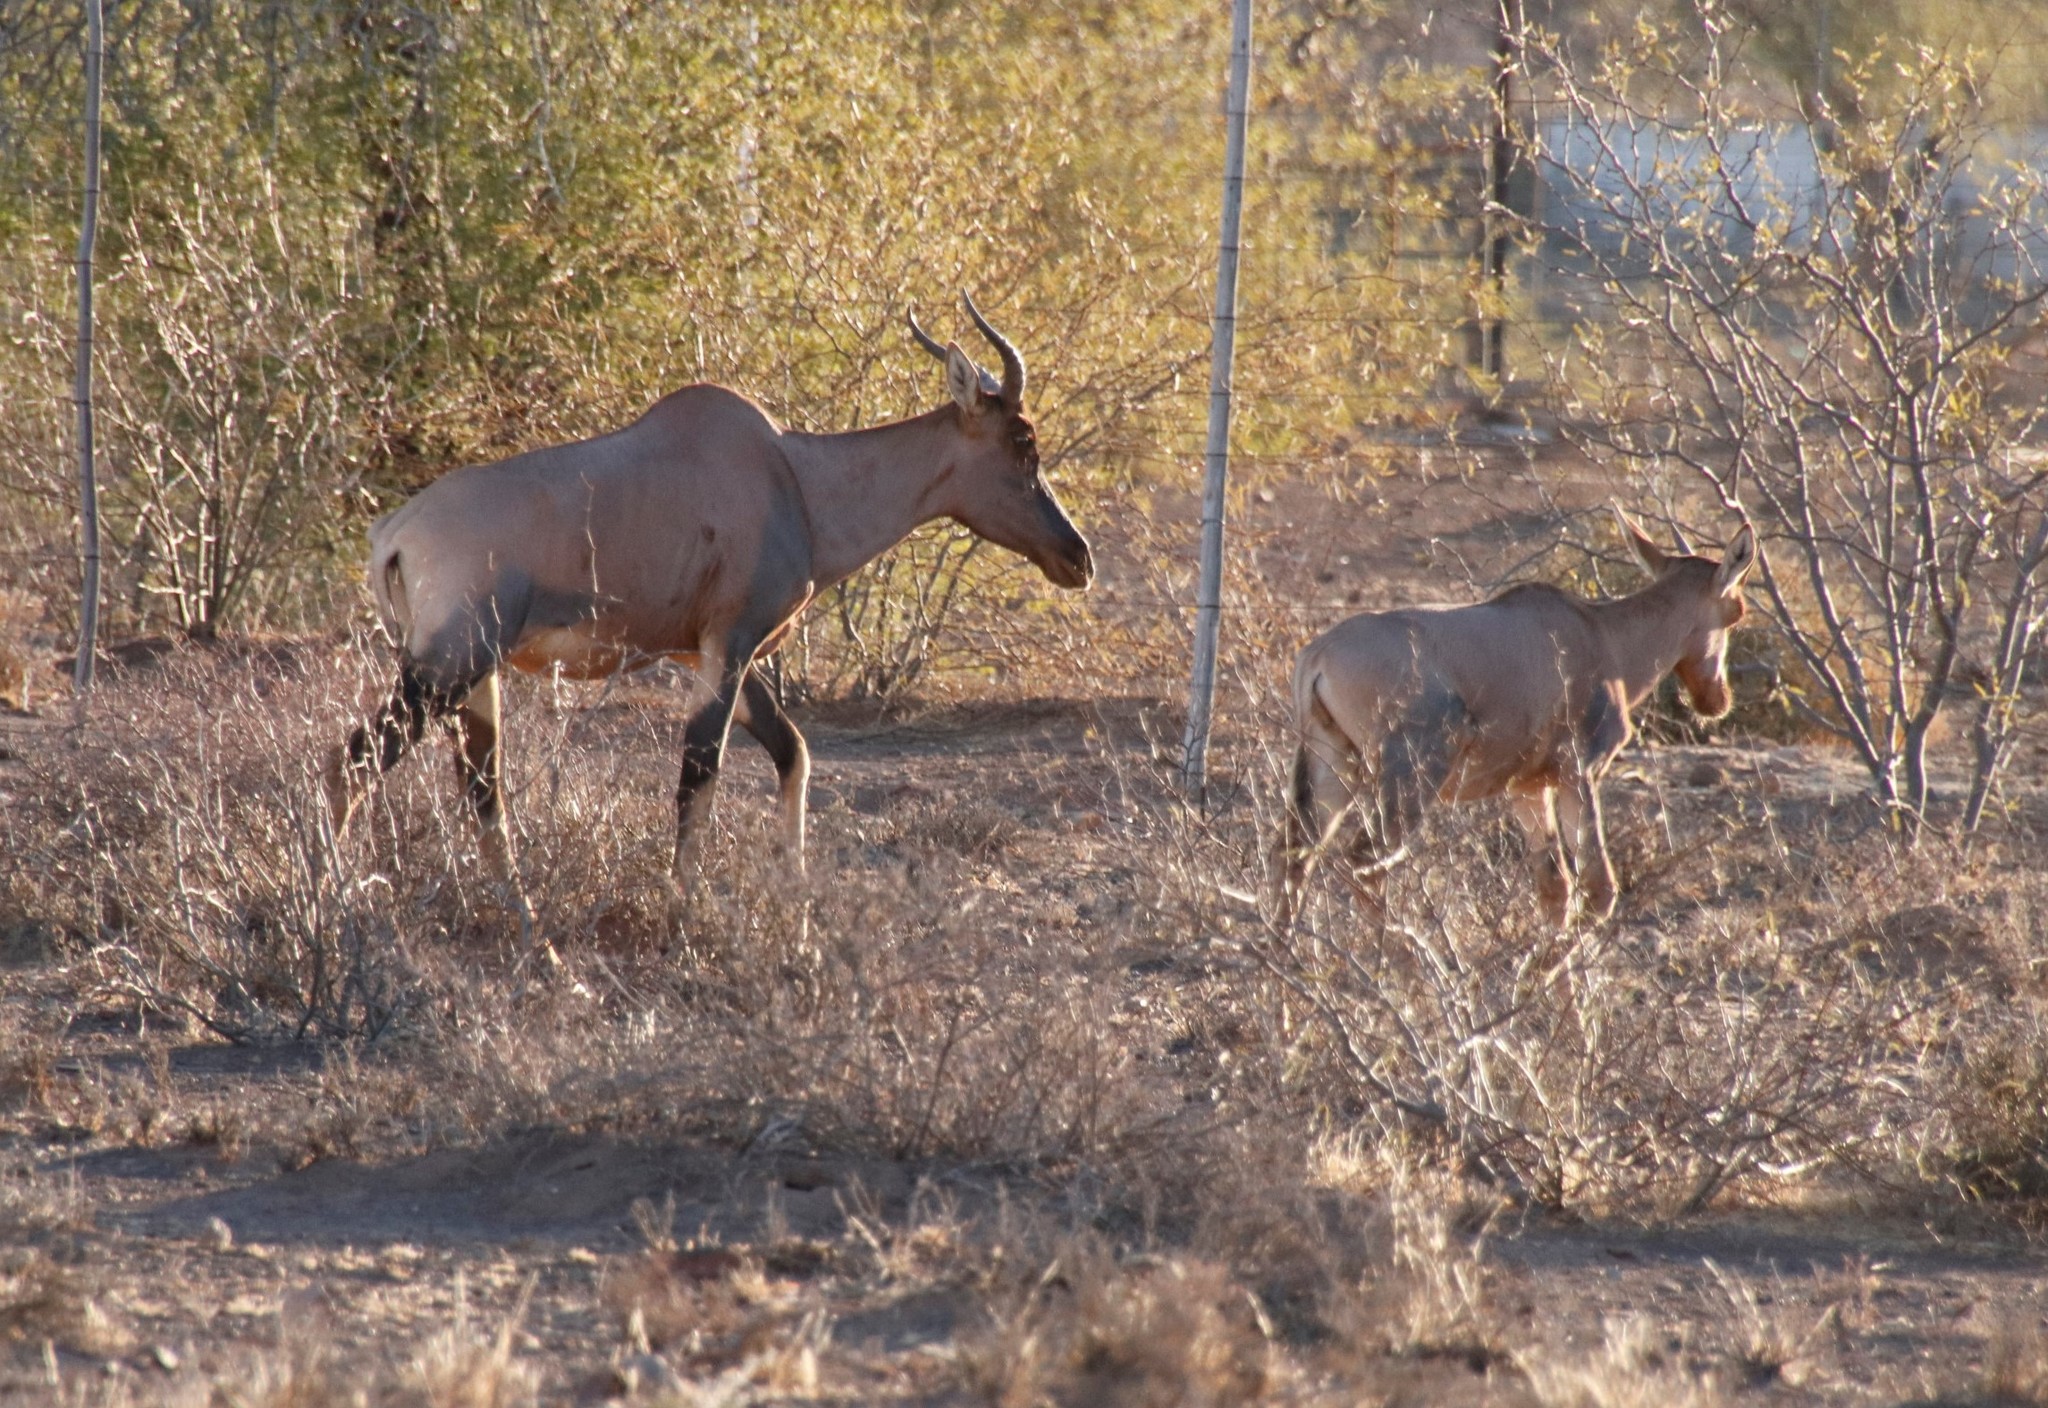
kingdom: Animalia
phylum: Chordata
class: Mammalia
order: Artiodactyla
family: Bovidae
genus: Damaliscus
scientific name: Damaliscus lunatus
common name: Common tsessebe
